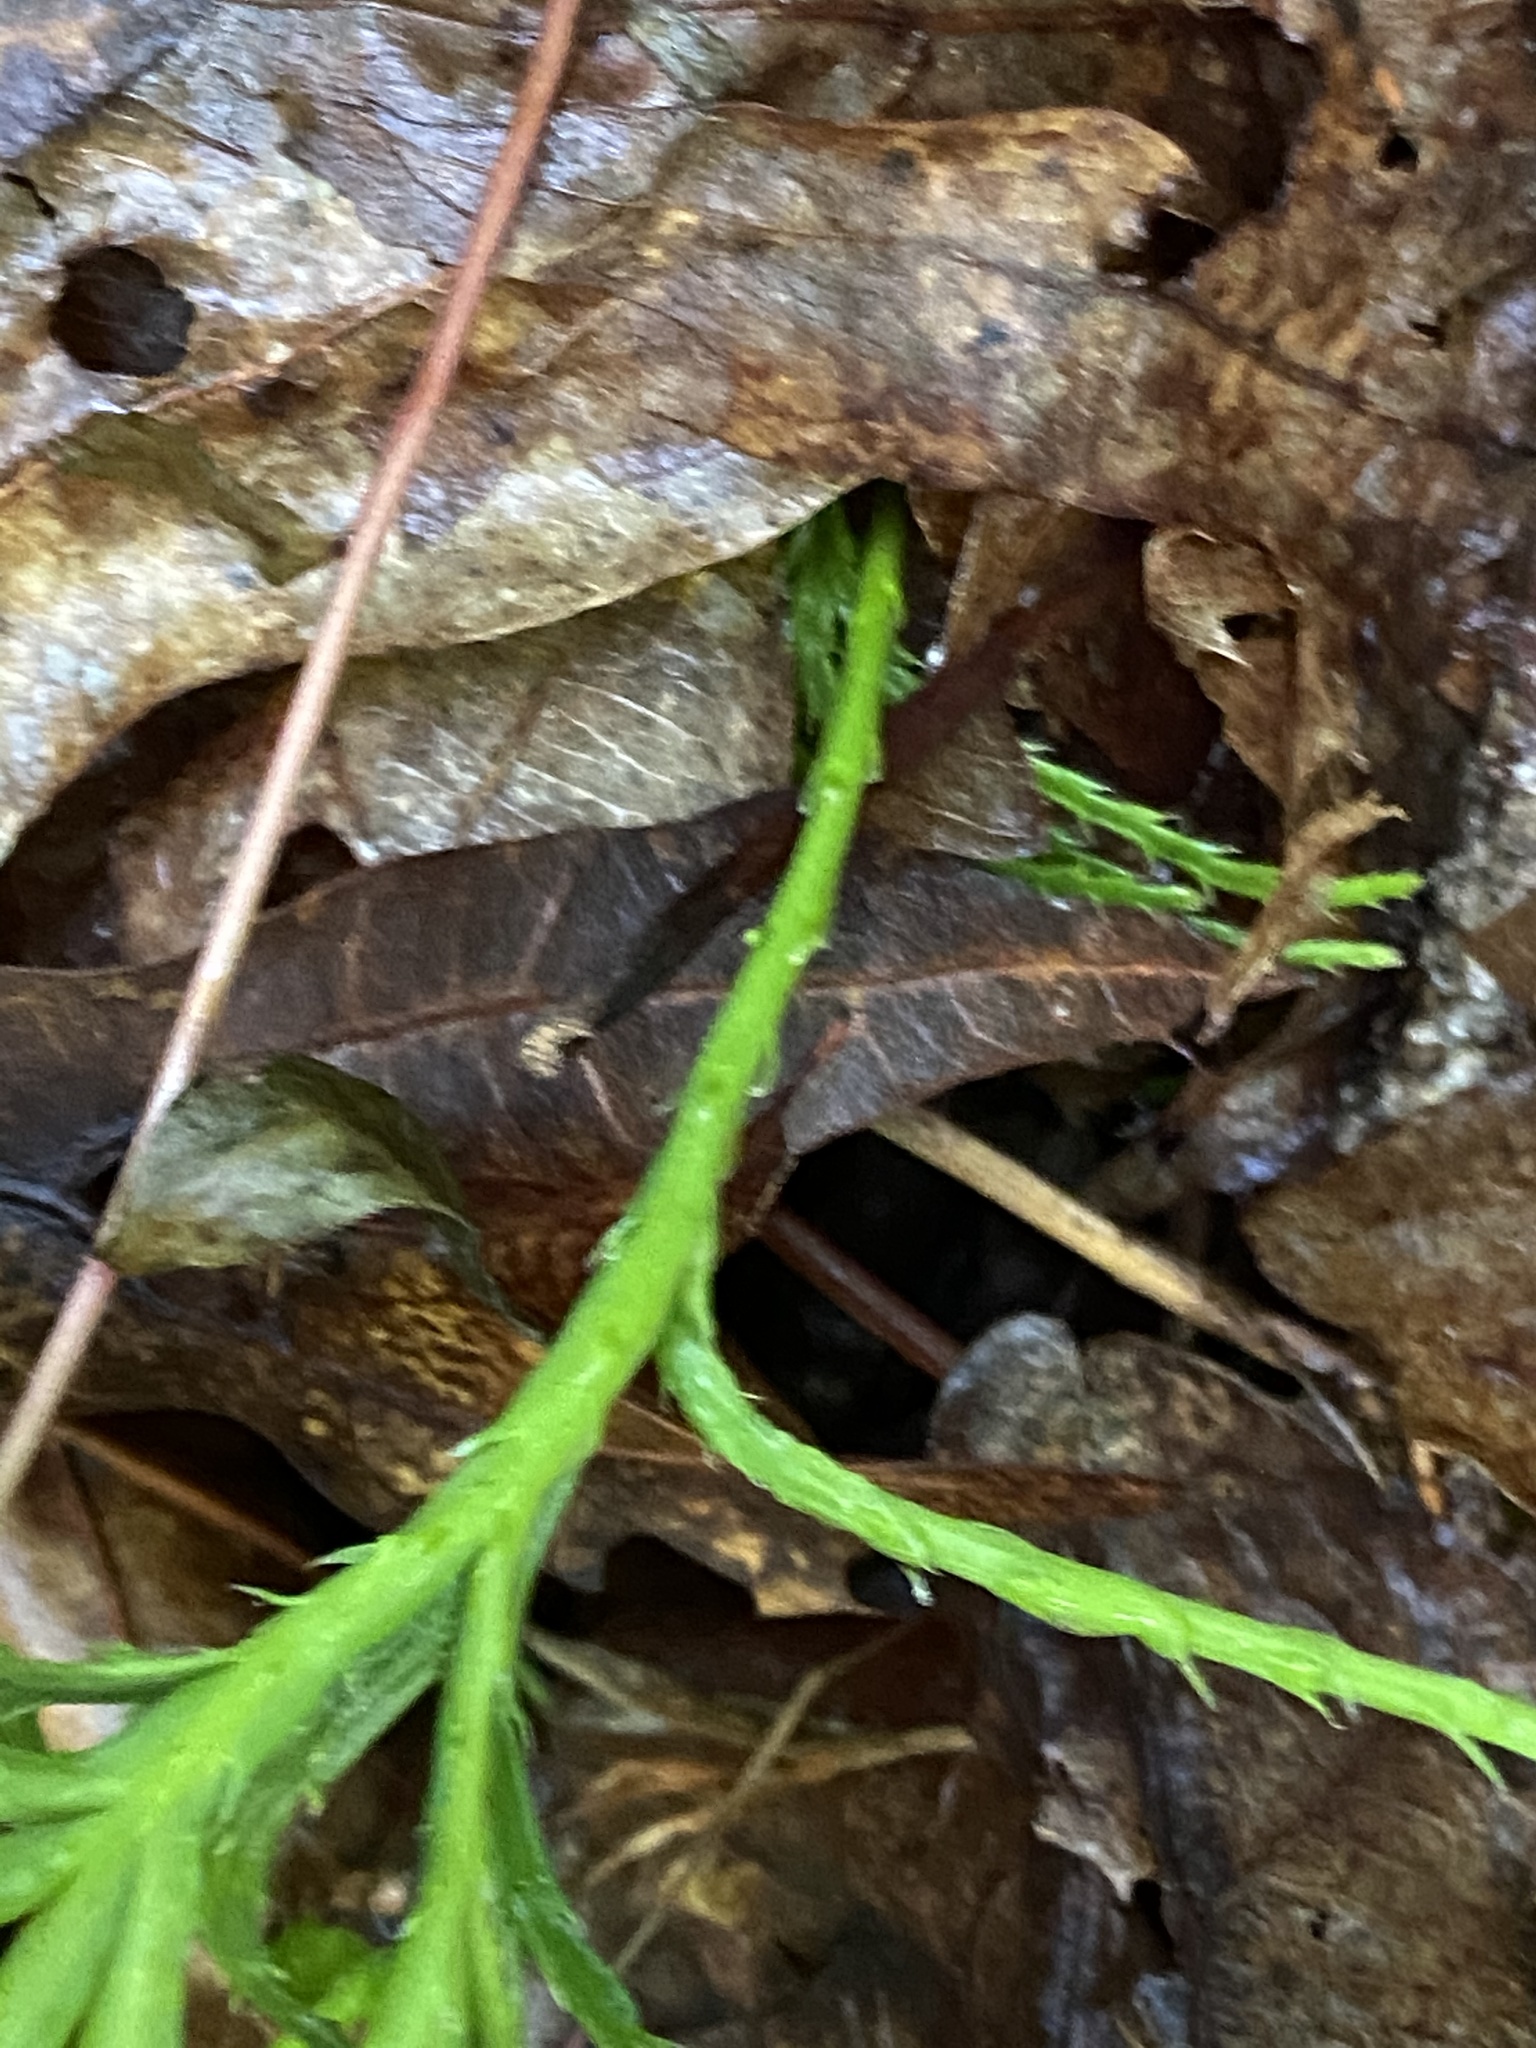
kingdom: Plantae
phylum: Tracheophyta
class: Lycopodiopsida
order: Lycopodiales
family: Lycopodiaceae
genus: Diphasiastrum
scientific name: Diphasiastrum digitatum
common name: Southern running-pine
